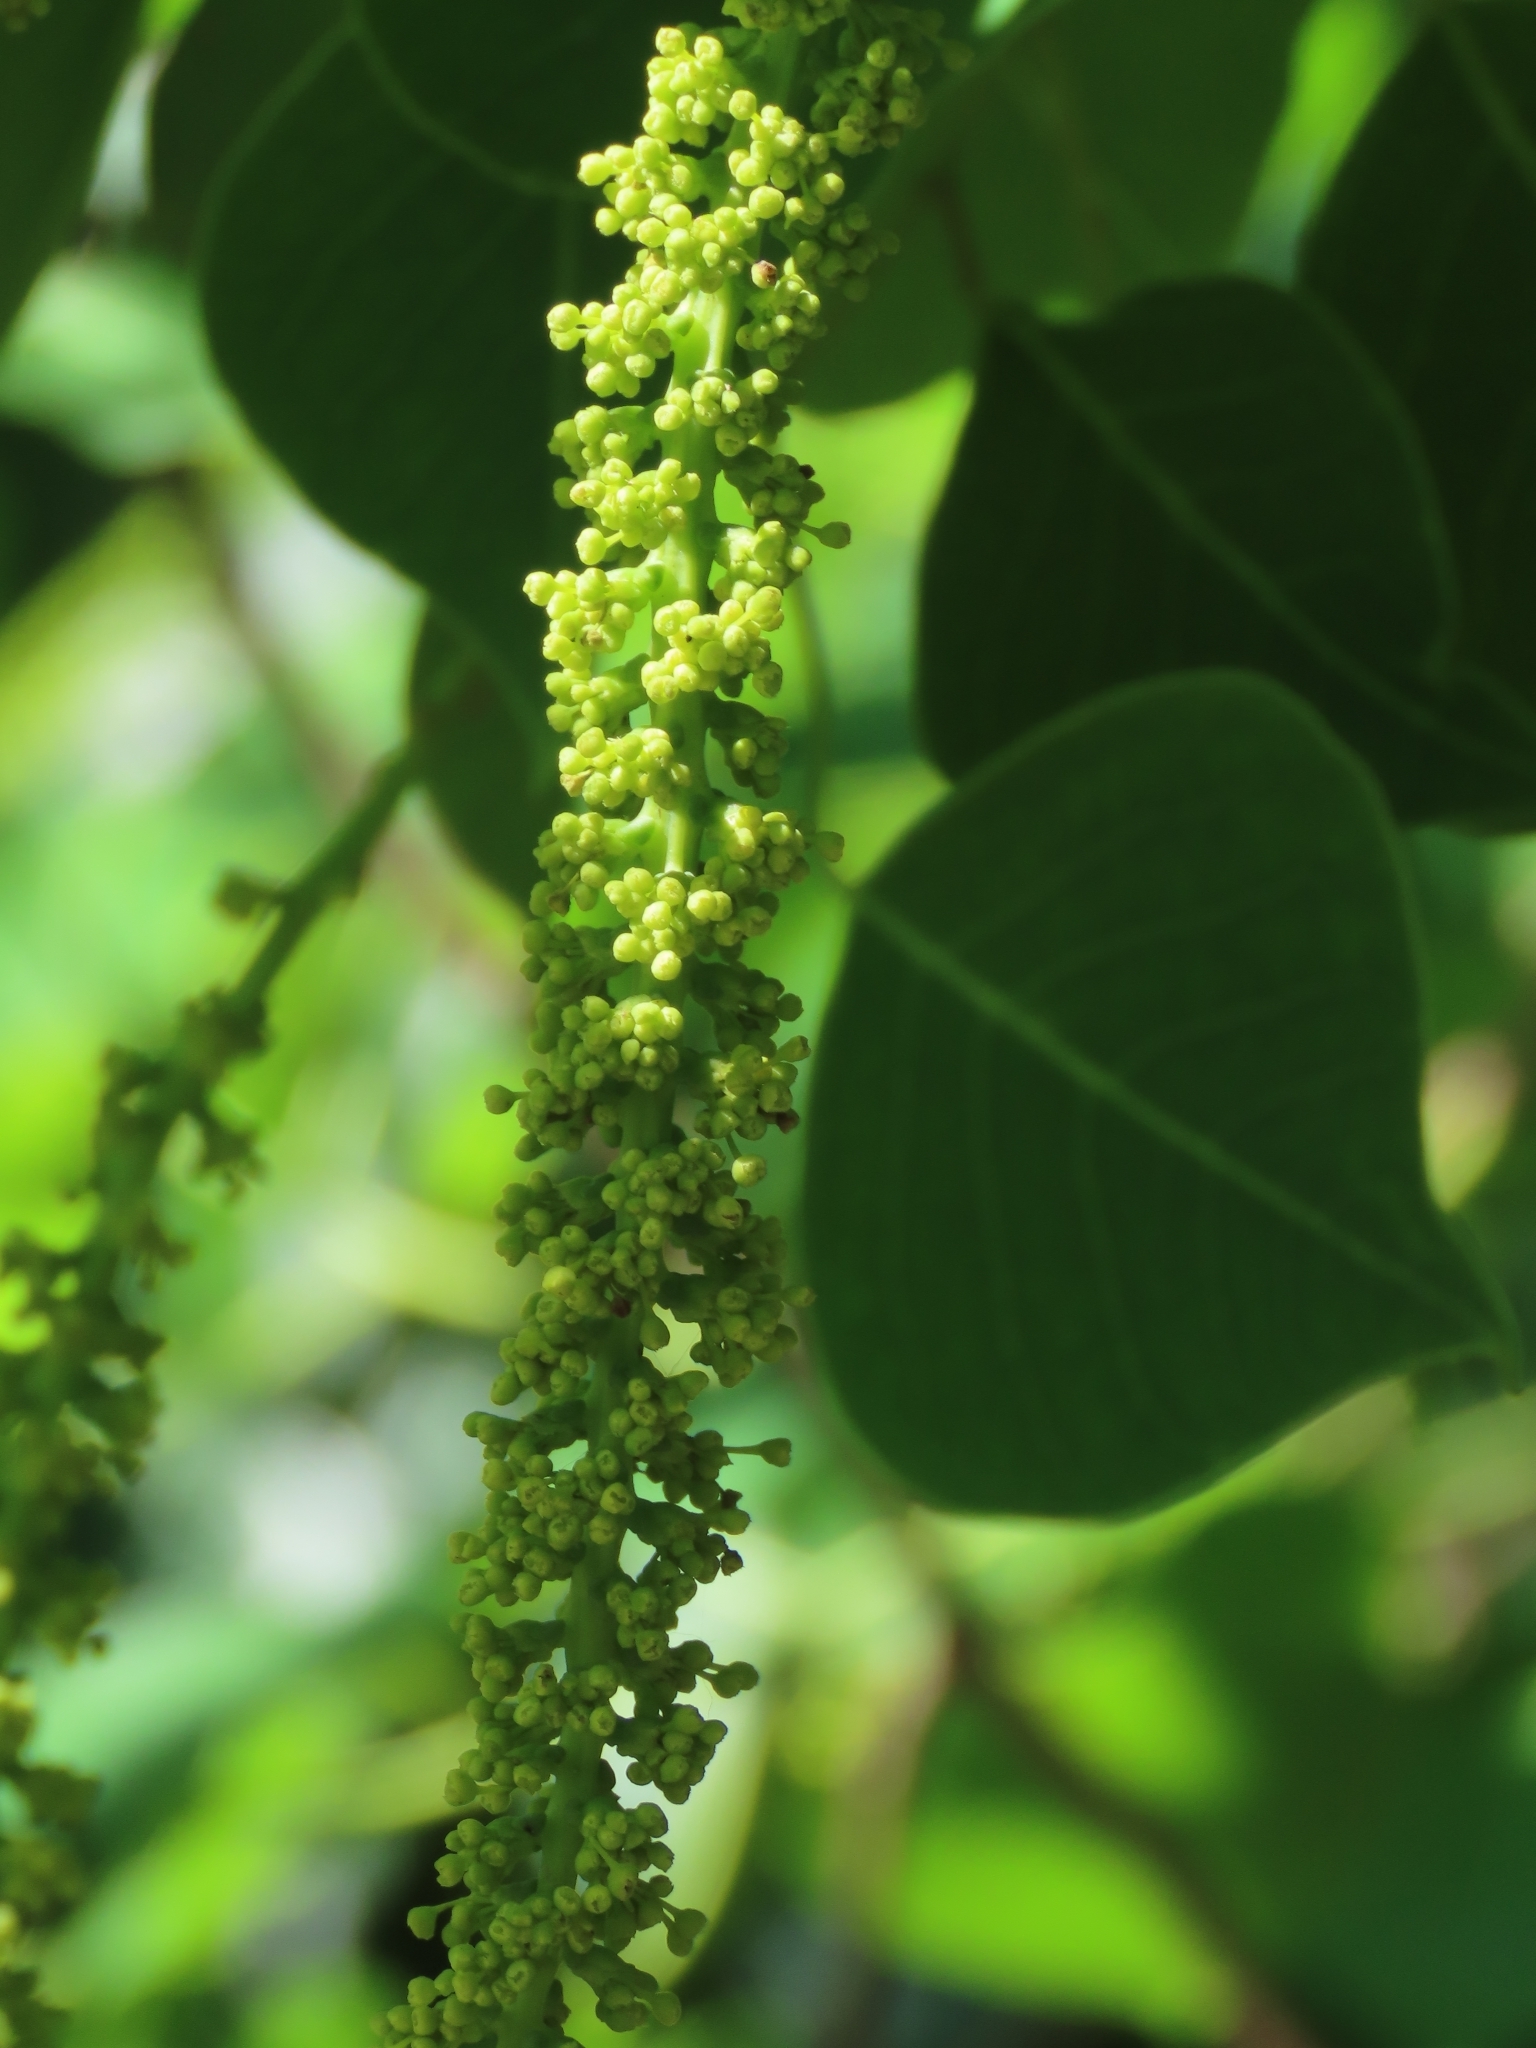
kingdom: Plantae
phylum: Tracheophyta
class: Magnoliopsida
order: Malpighiales
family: Euphorbiaceae
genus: Triadica
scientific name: Triadica sebifera
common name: Chinese tallow
